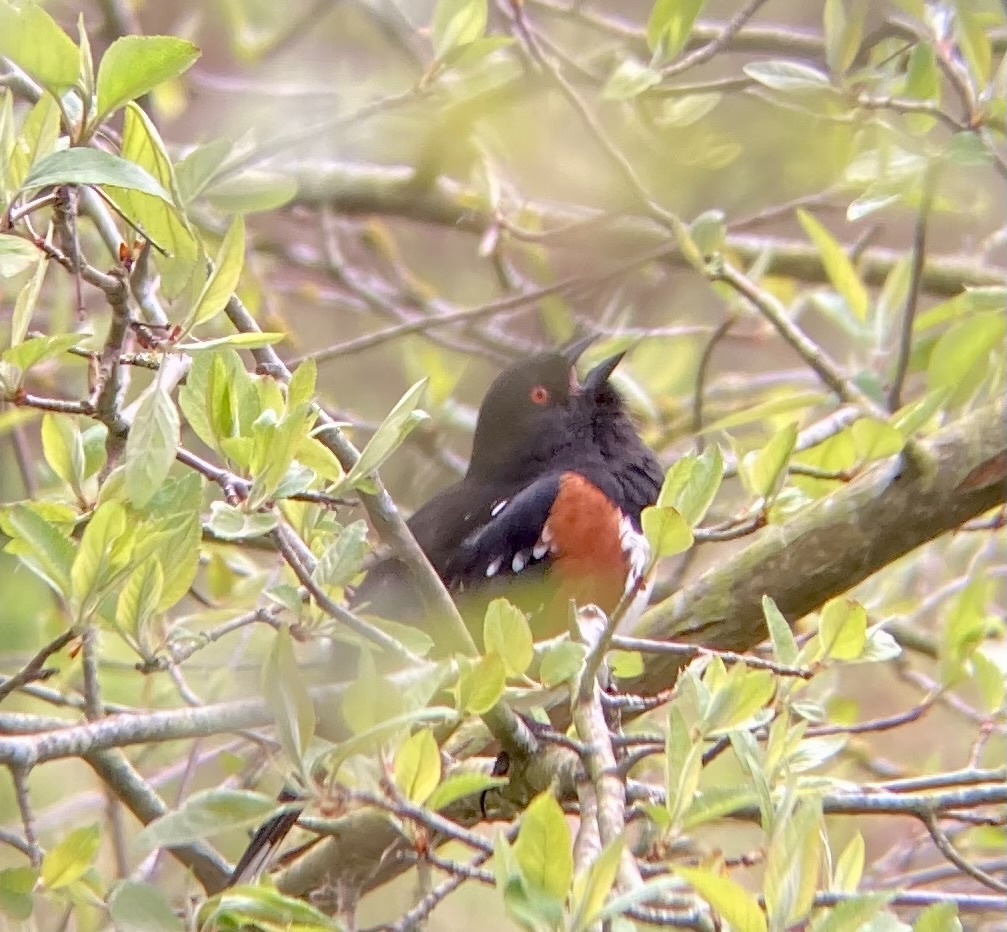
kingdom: Animalia
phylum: Chordata
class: Aves
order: Passeriformes
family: Passerellidae
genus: Pipilo
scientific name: Pipilo maculatus
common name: Spotted towhee
